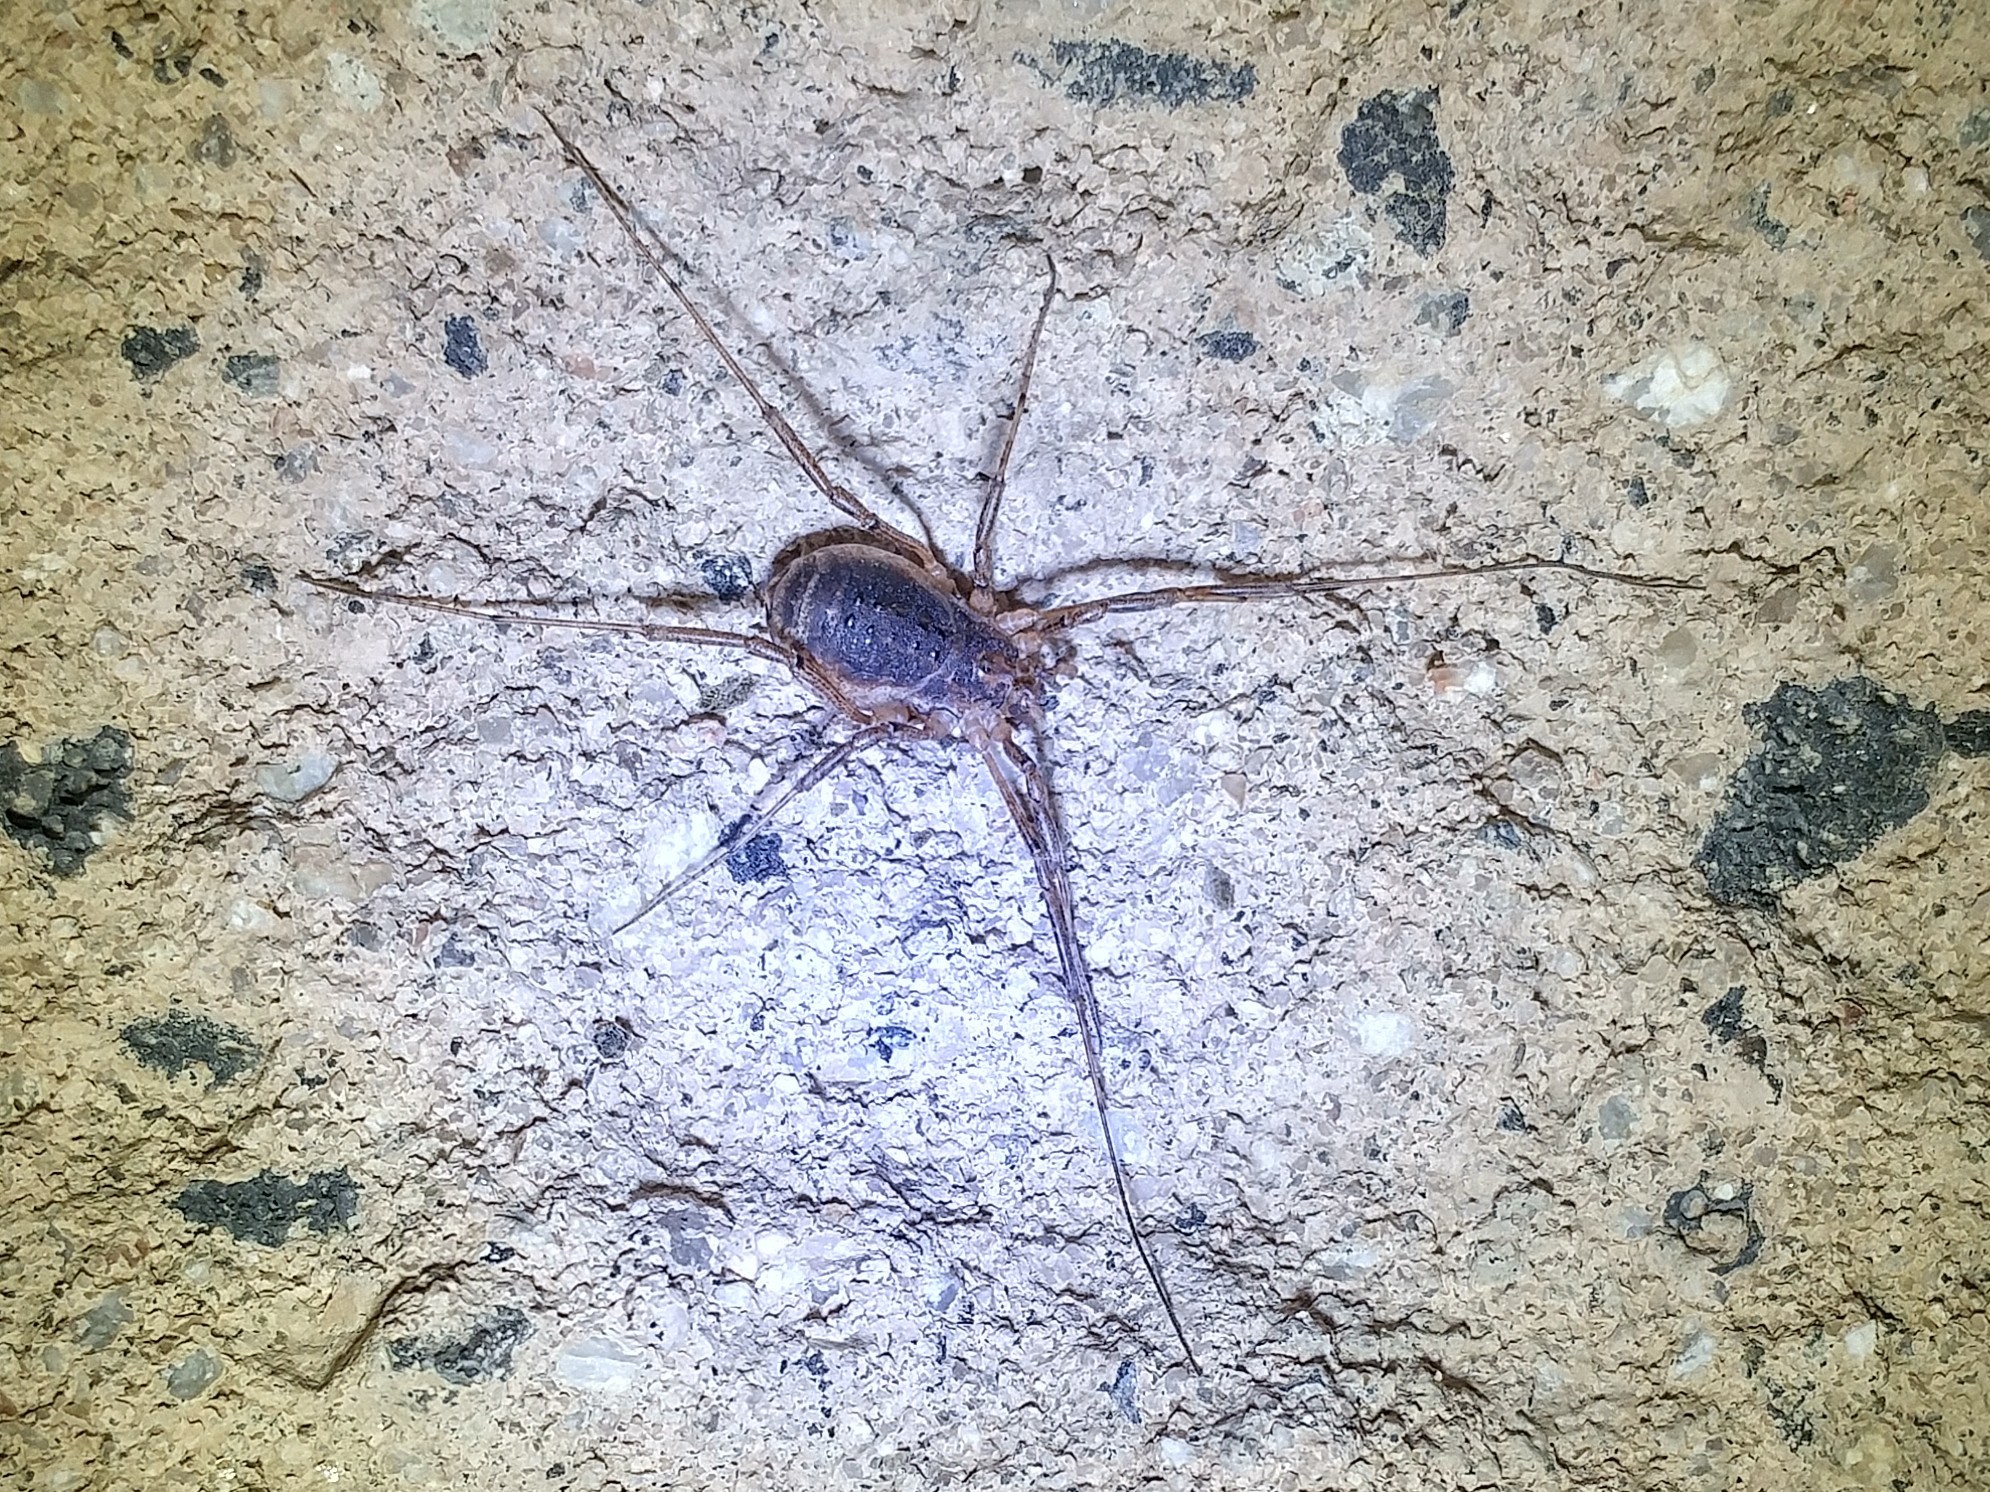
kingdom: Animalia
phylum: Arthropoda
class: Arachnida
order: Opiliones
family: Protolophidae
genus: Protolophus
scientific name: Protolophus cockerelli
